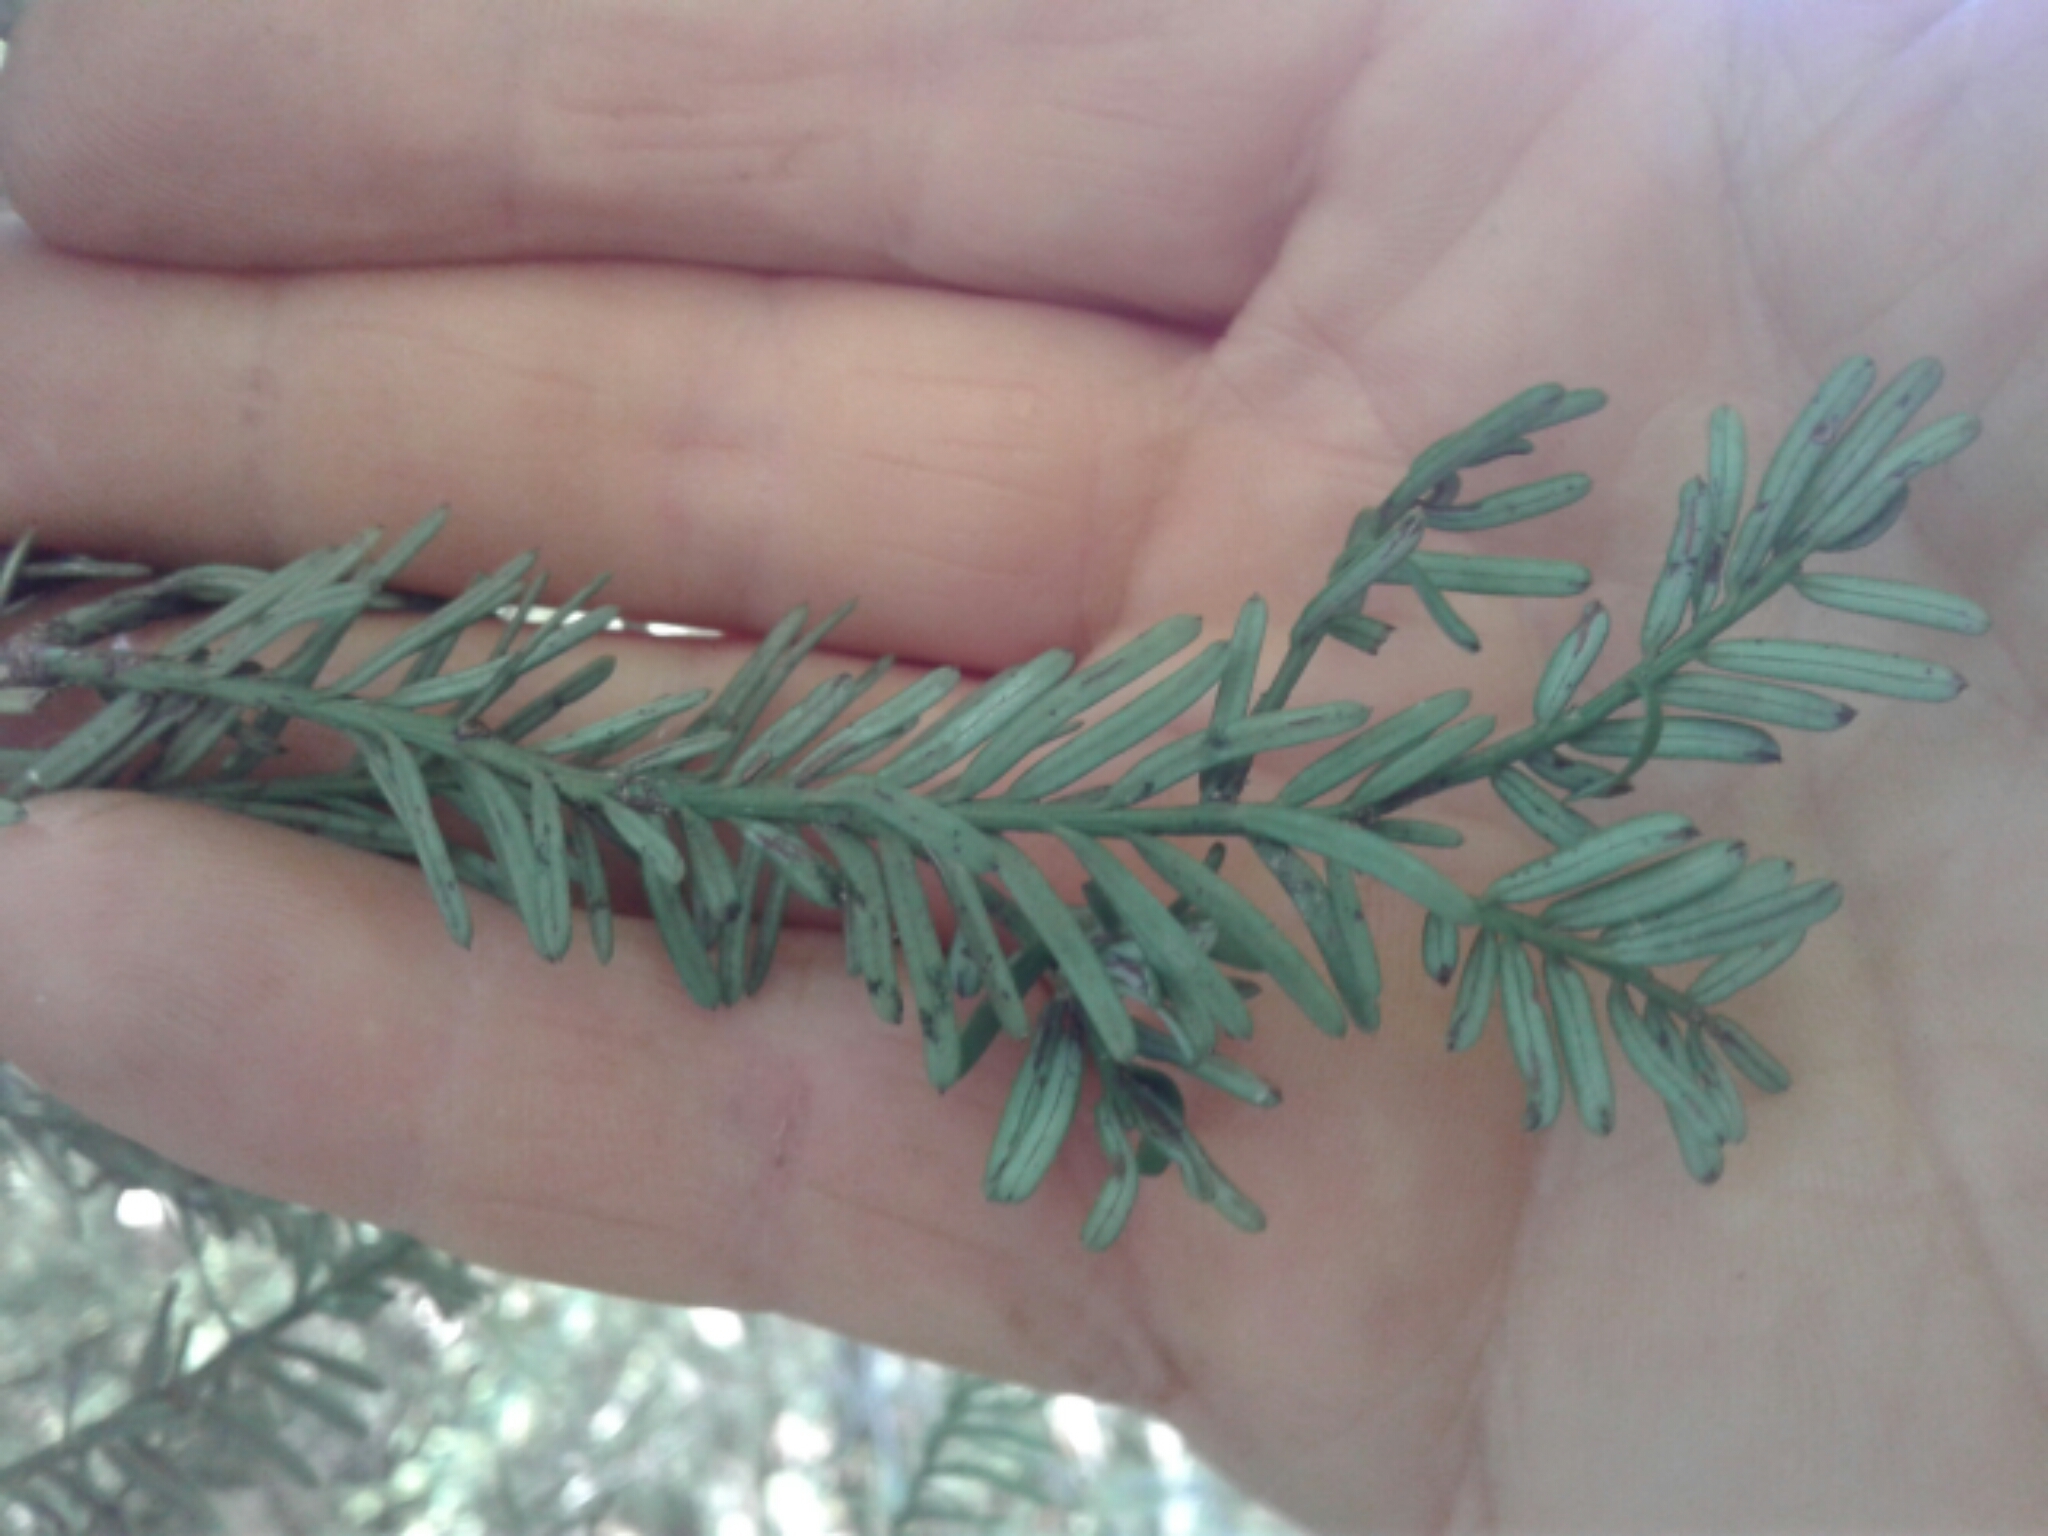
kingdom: Plantae
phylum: Tracheophyta
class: Pinopsida
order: Pinales
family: Podocarpaceae
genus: Prumnopitys
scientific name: Prumnopitys taxifolia
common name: Matai
